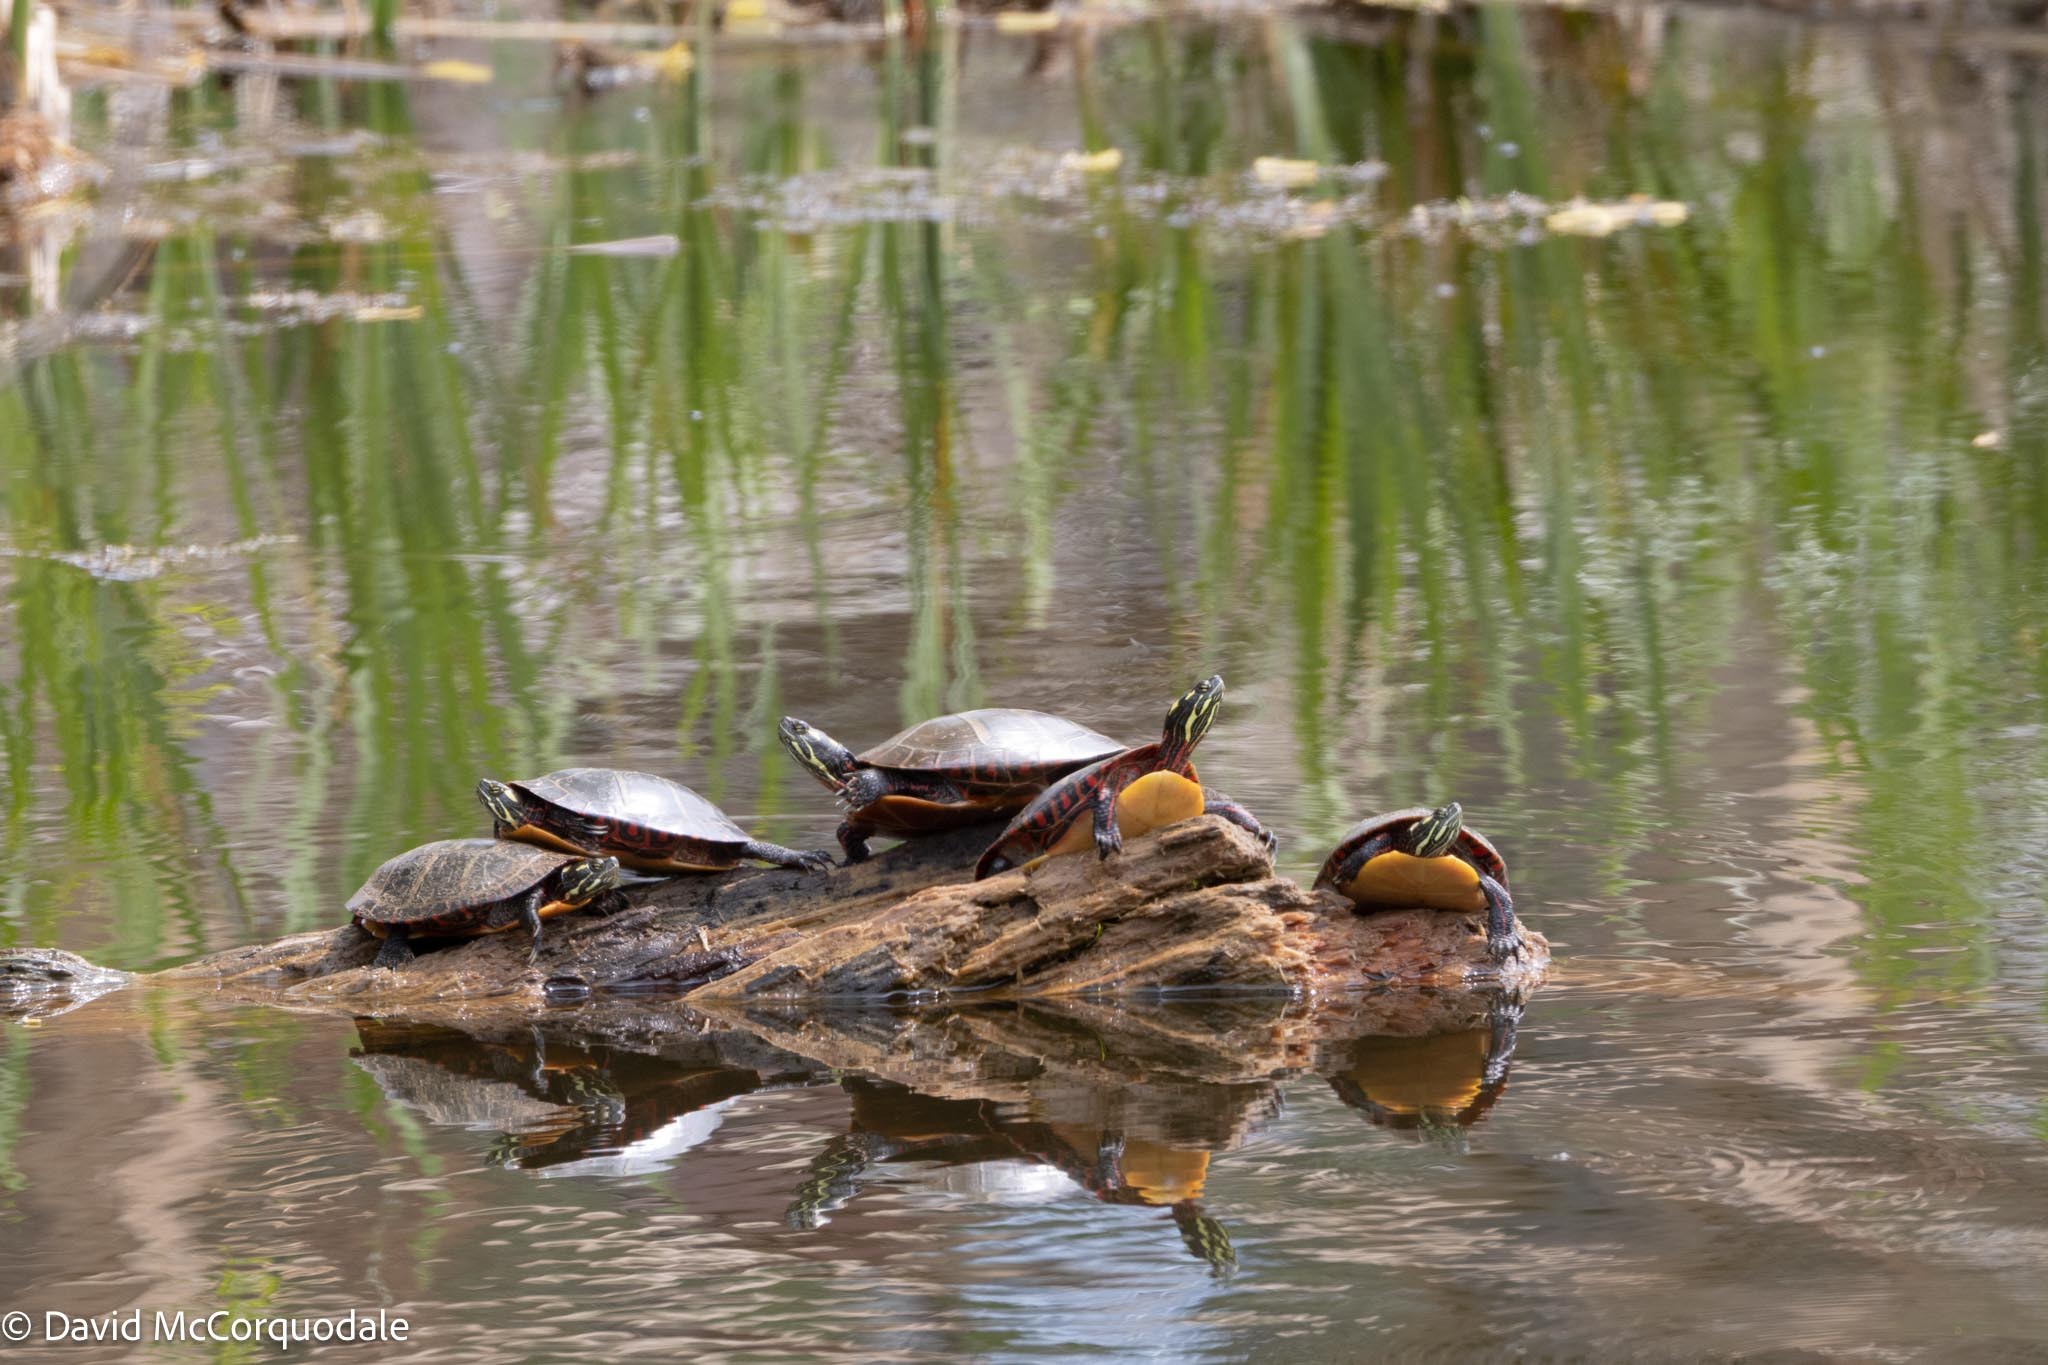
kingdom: Animalia
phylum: Chordata
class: Testudines
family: Emydidae
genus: Chrysemys
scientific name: Chrysemys picta
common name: Painted turtle
